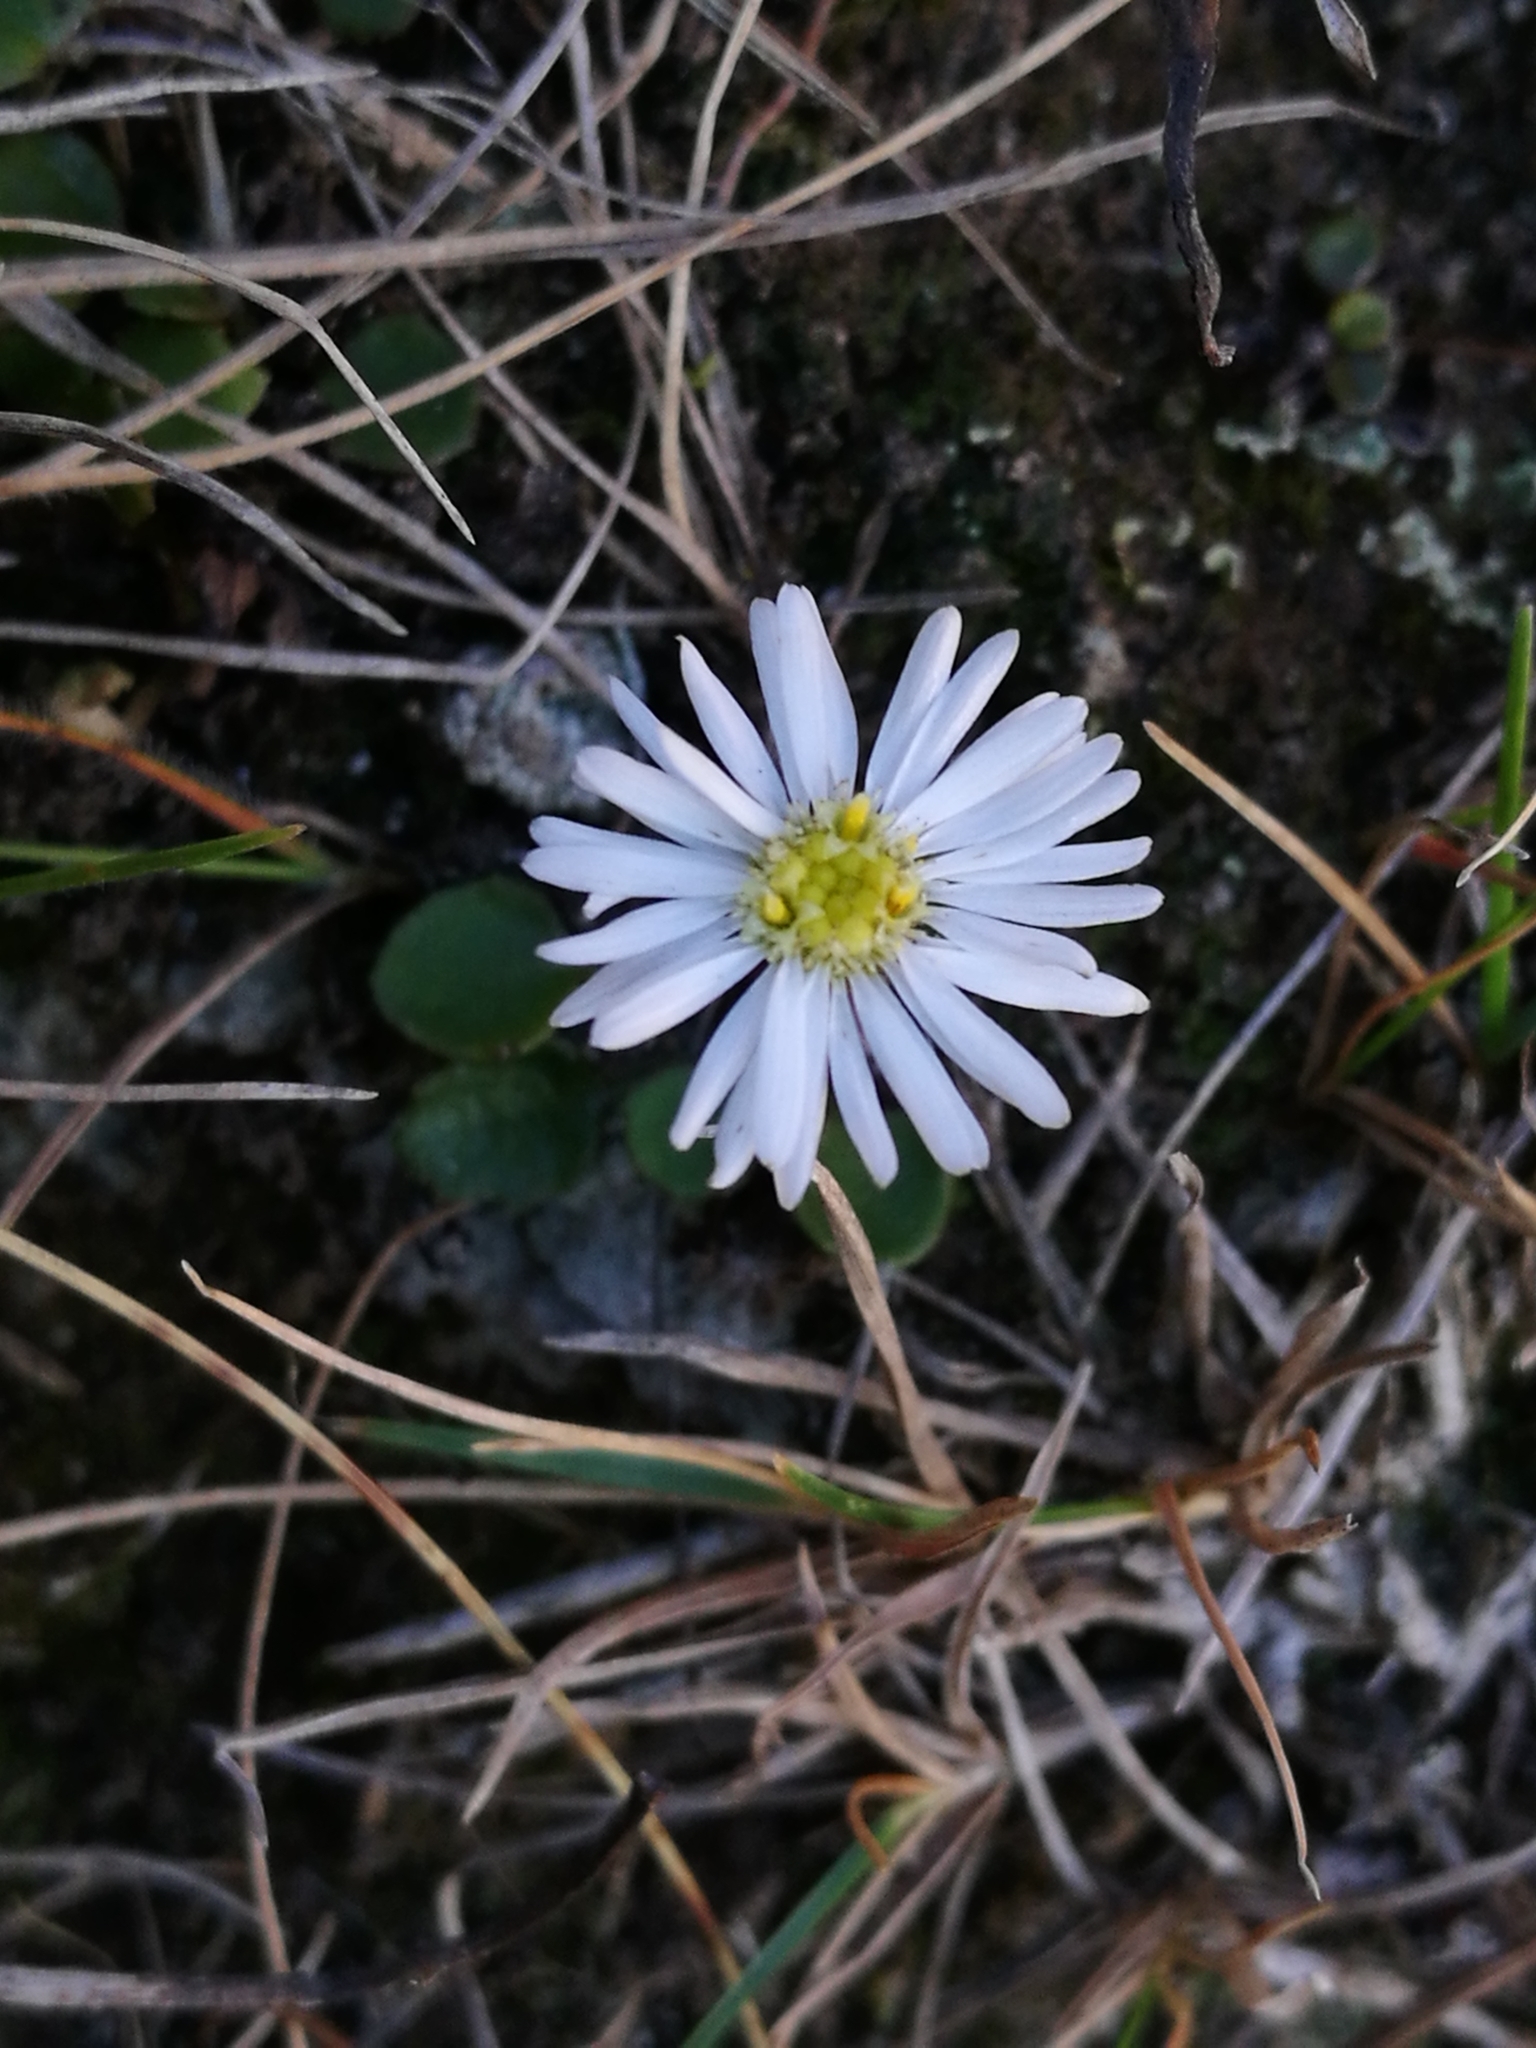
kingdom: Plantae
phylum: Tracheophyta
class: Magnoliopsida
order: Asterales
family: Asteraceae
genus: Celmisia
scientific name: Celmisia gracilenta
